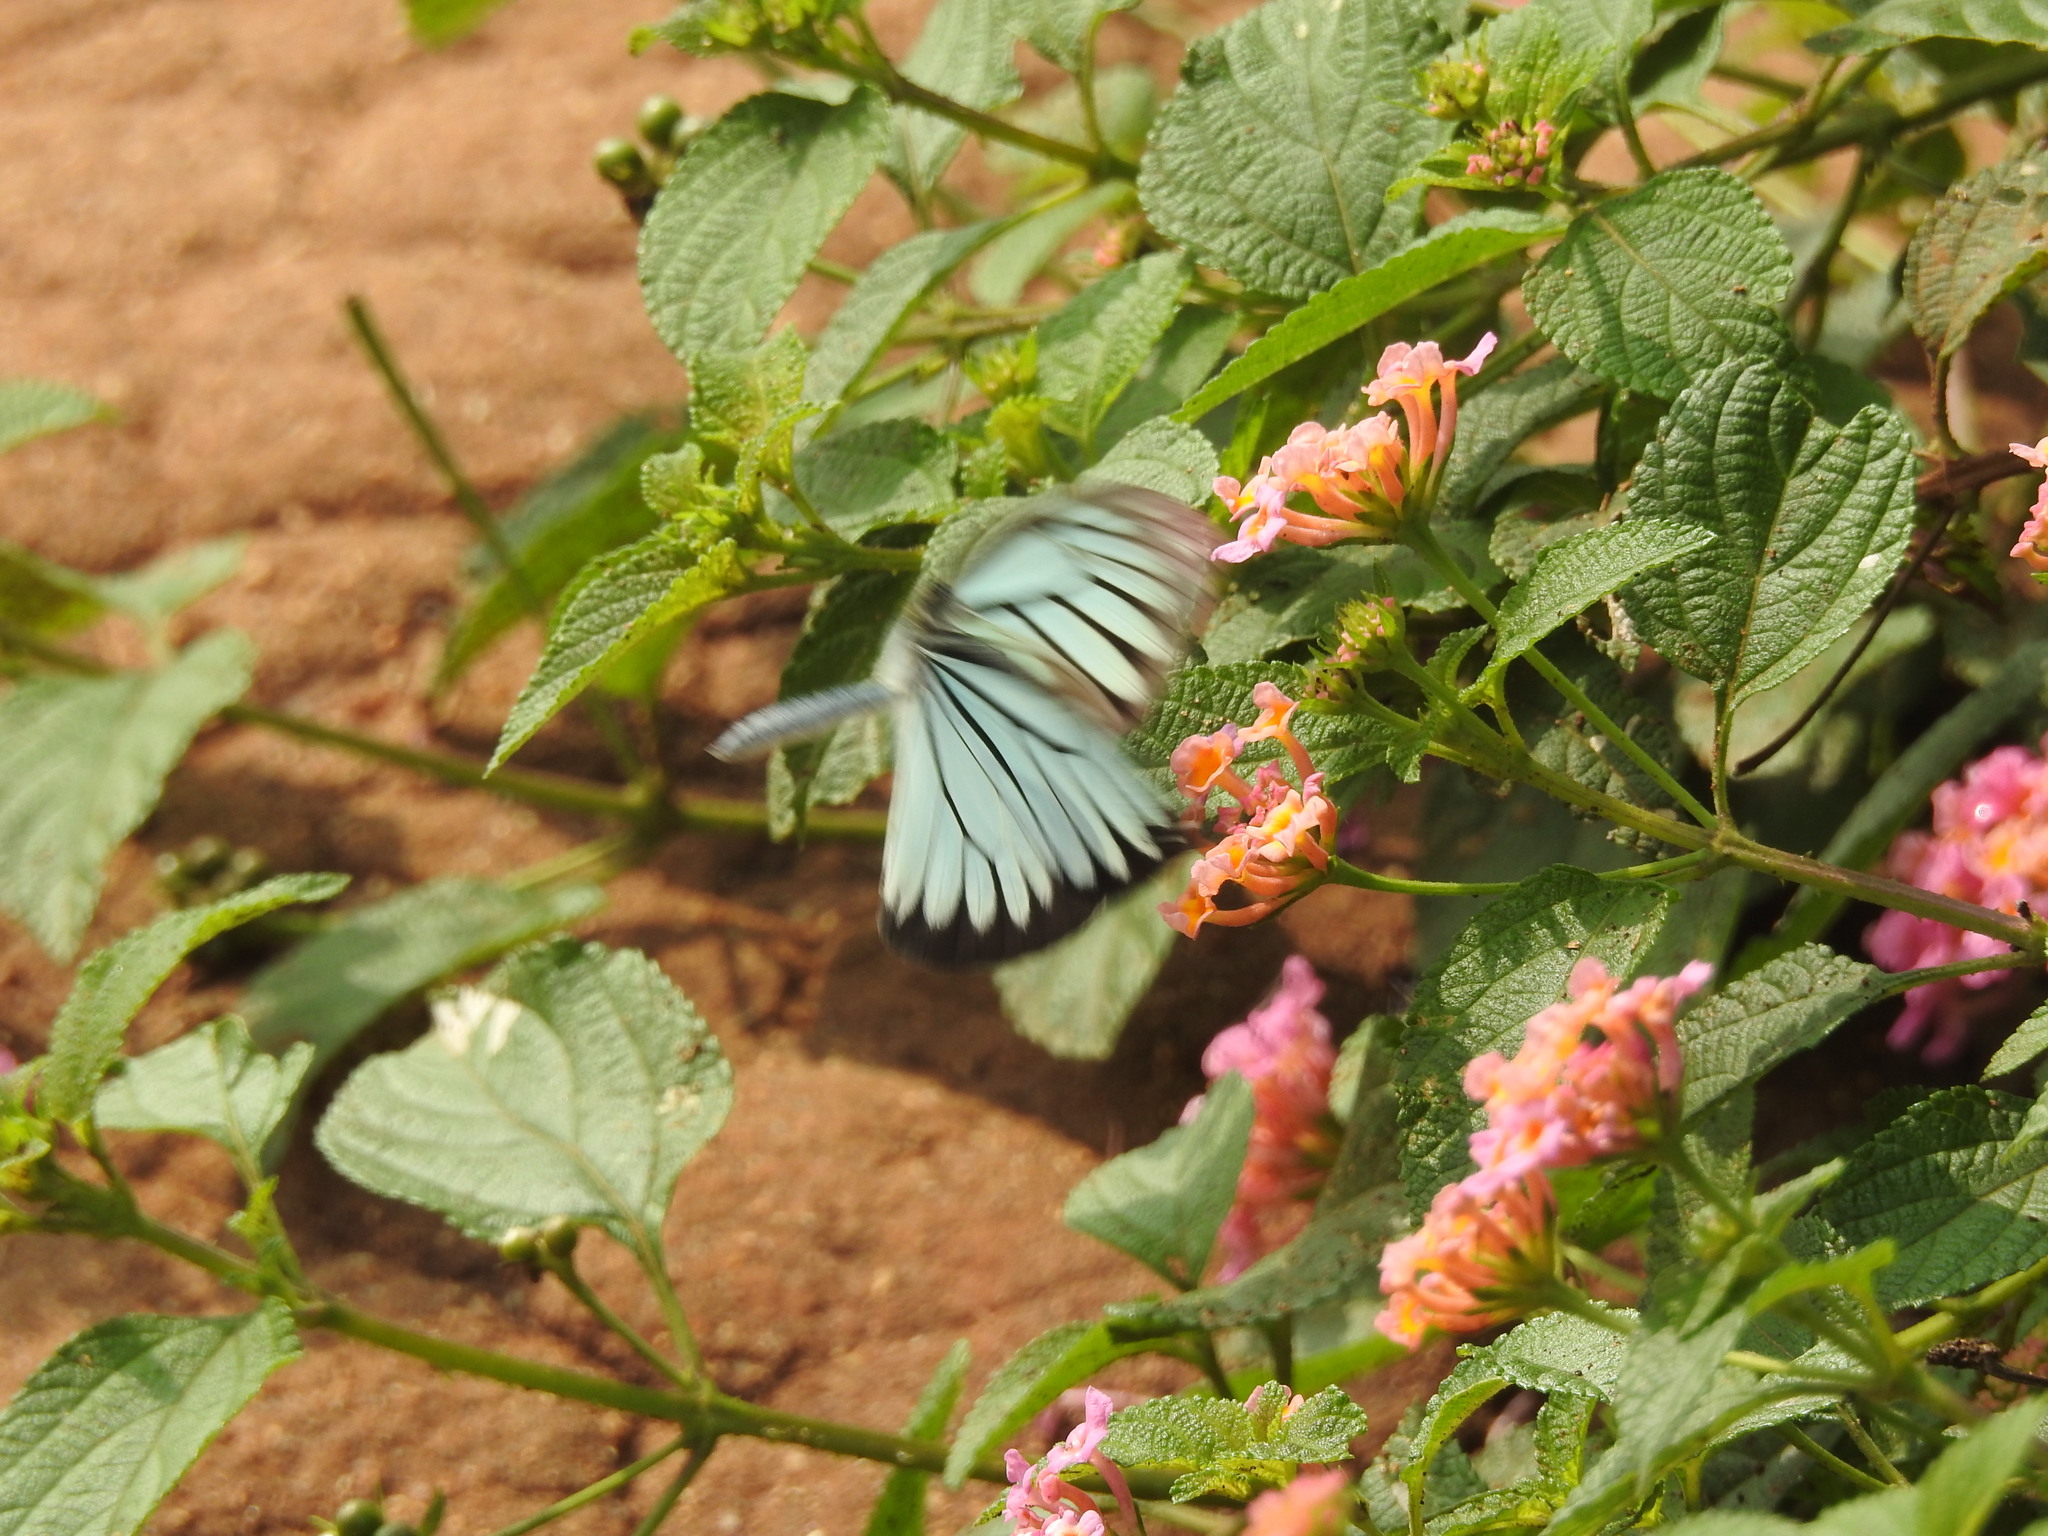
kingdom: Animalia
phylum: Arthropoda
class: Insecta
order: Lepidoptera
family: Pieridae
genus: Pareronia
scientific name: Pareronia hippia
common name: Indian wanderer
